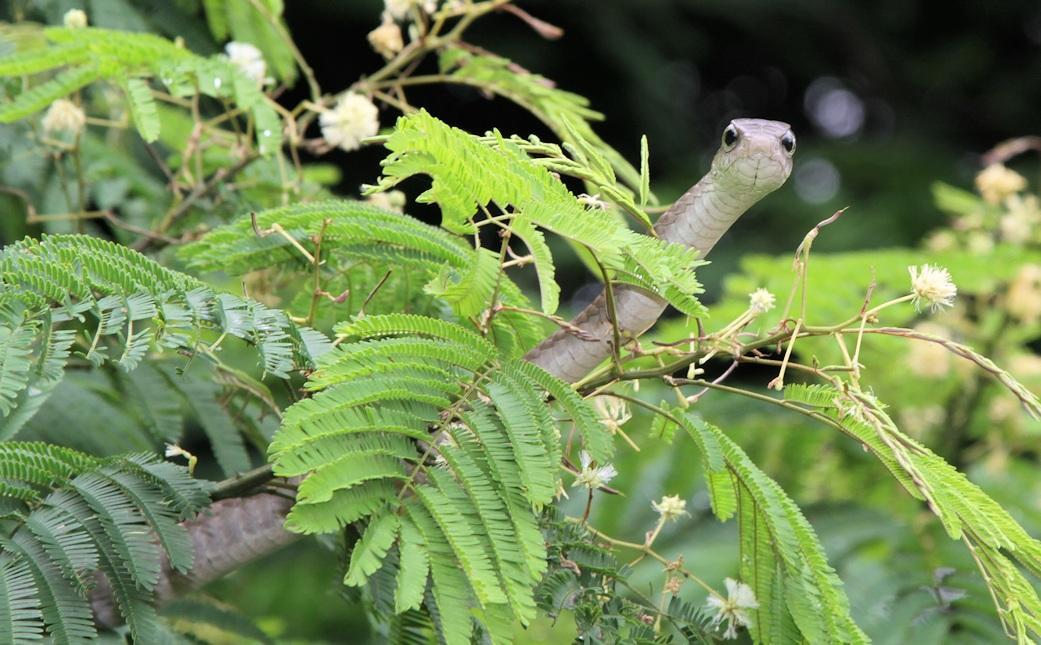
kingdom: Animalia
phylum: Chordata
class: Squamata
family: Colubridae
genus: Dispholidus
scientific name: Dispholidus typus
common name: Boomslang
